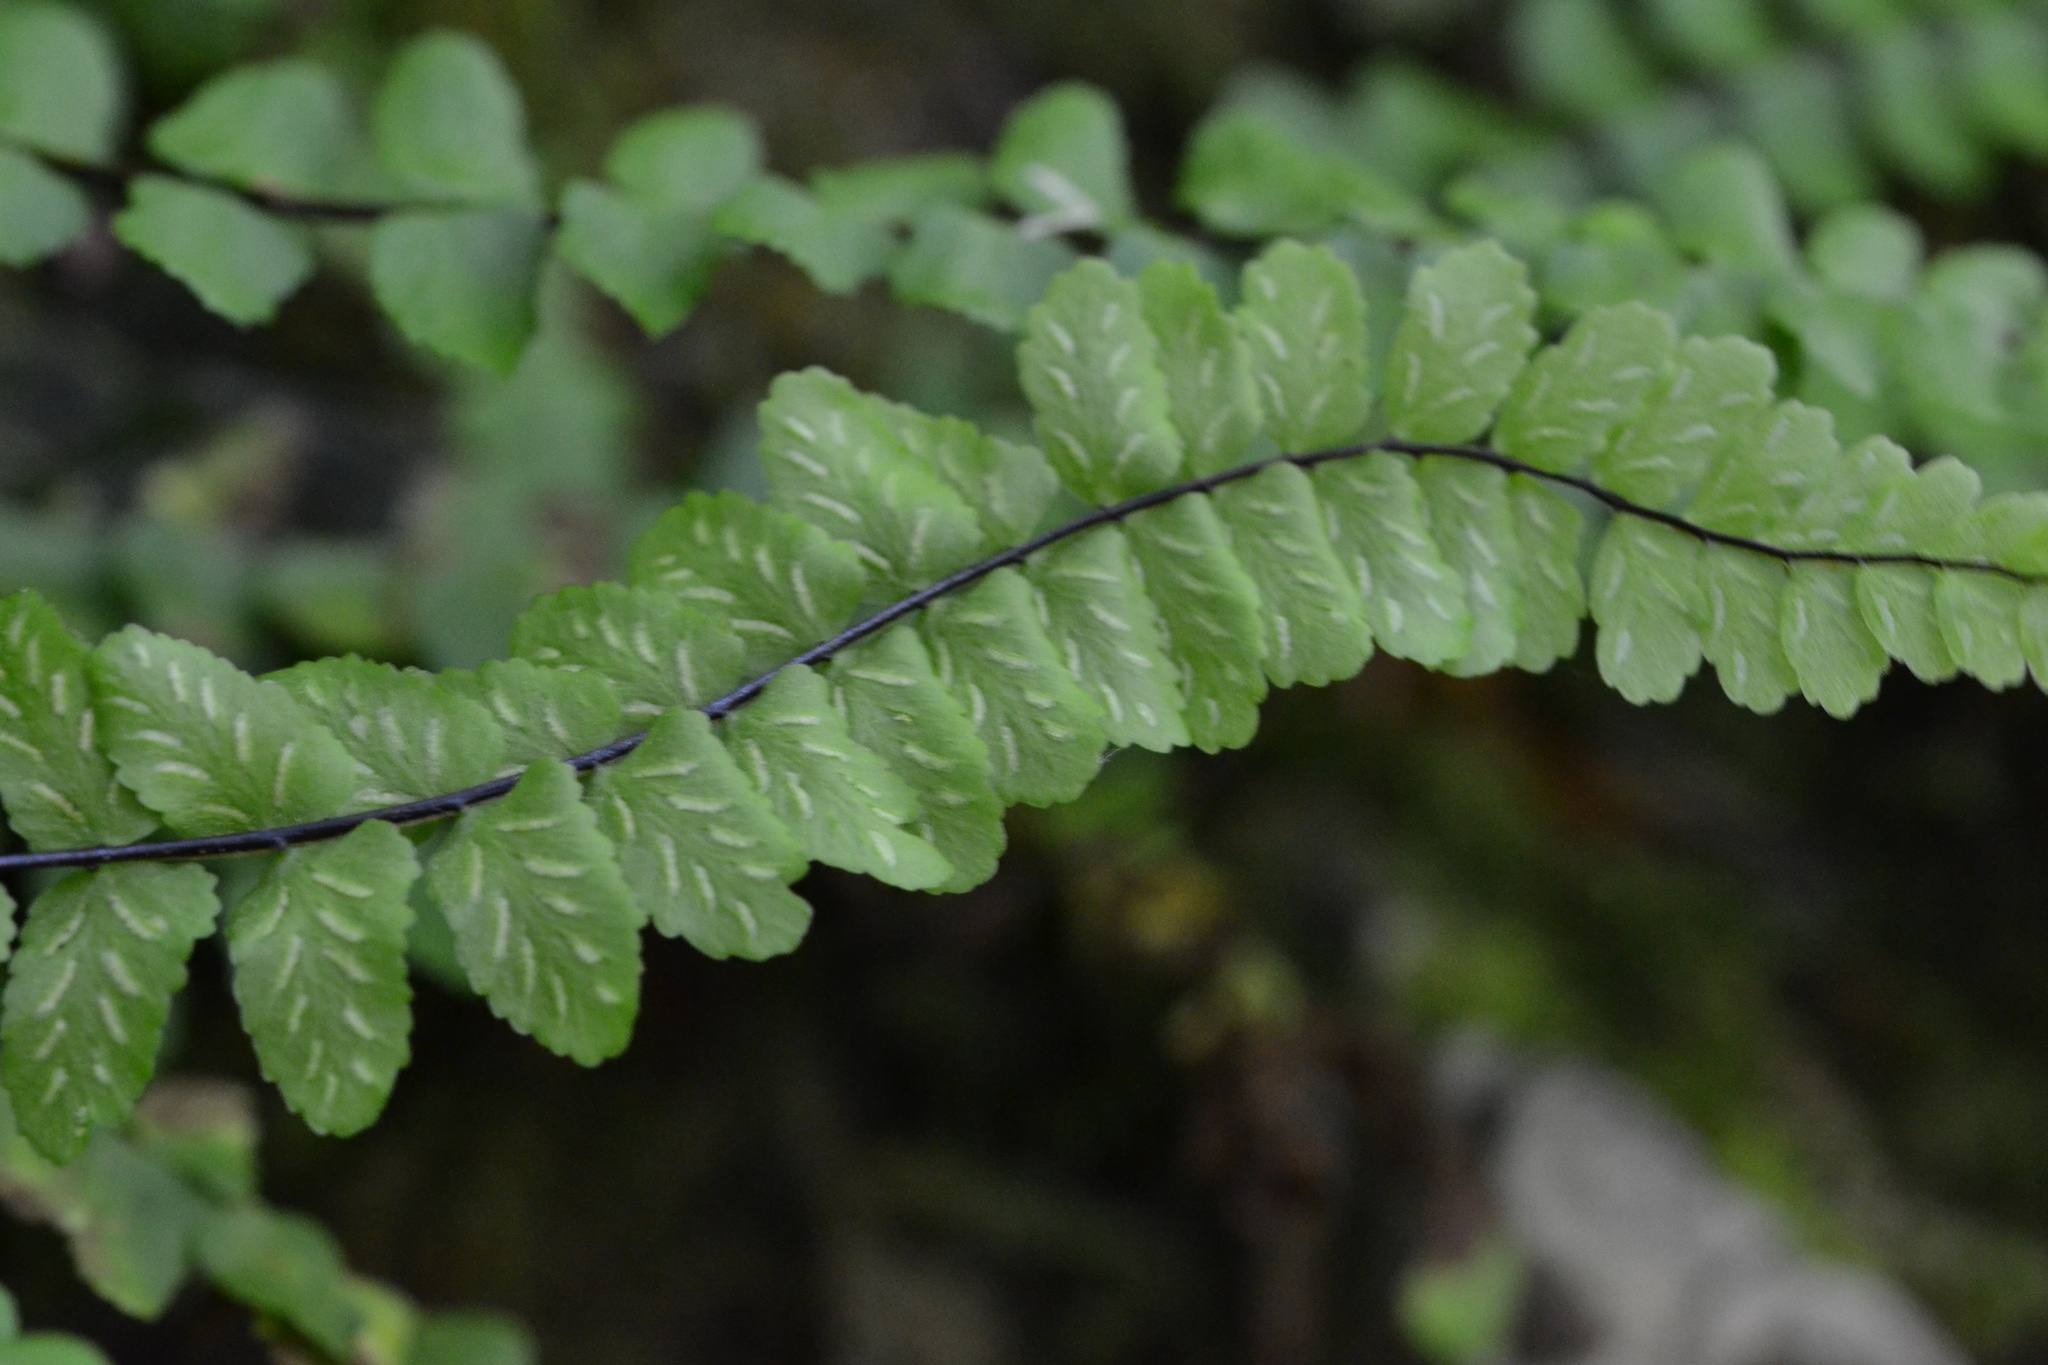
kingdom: Plantae
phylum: Tracheophyta
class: Polypodiopsida
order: Polypodiales
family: Aspleniaceae
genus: Asplenium
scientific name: Asplenium trichomanes
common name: Maidenhair spleenwort
